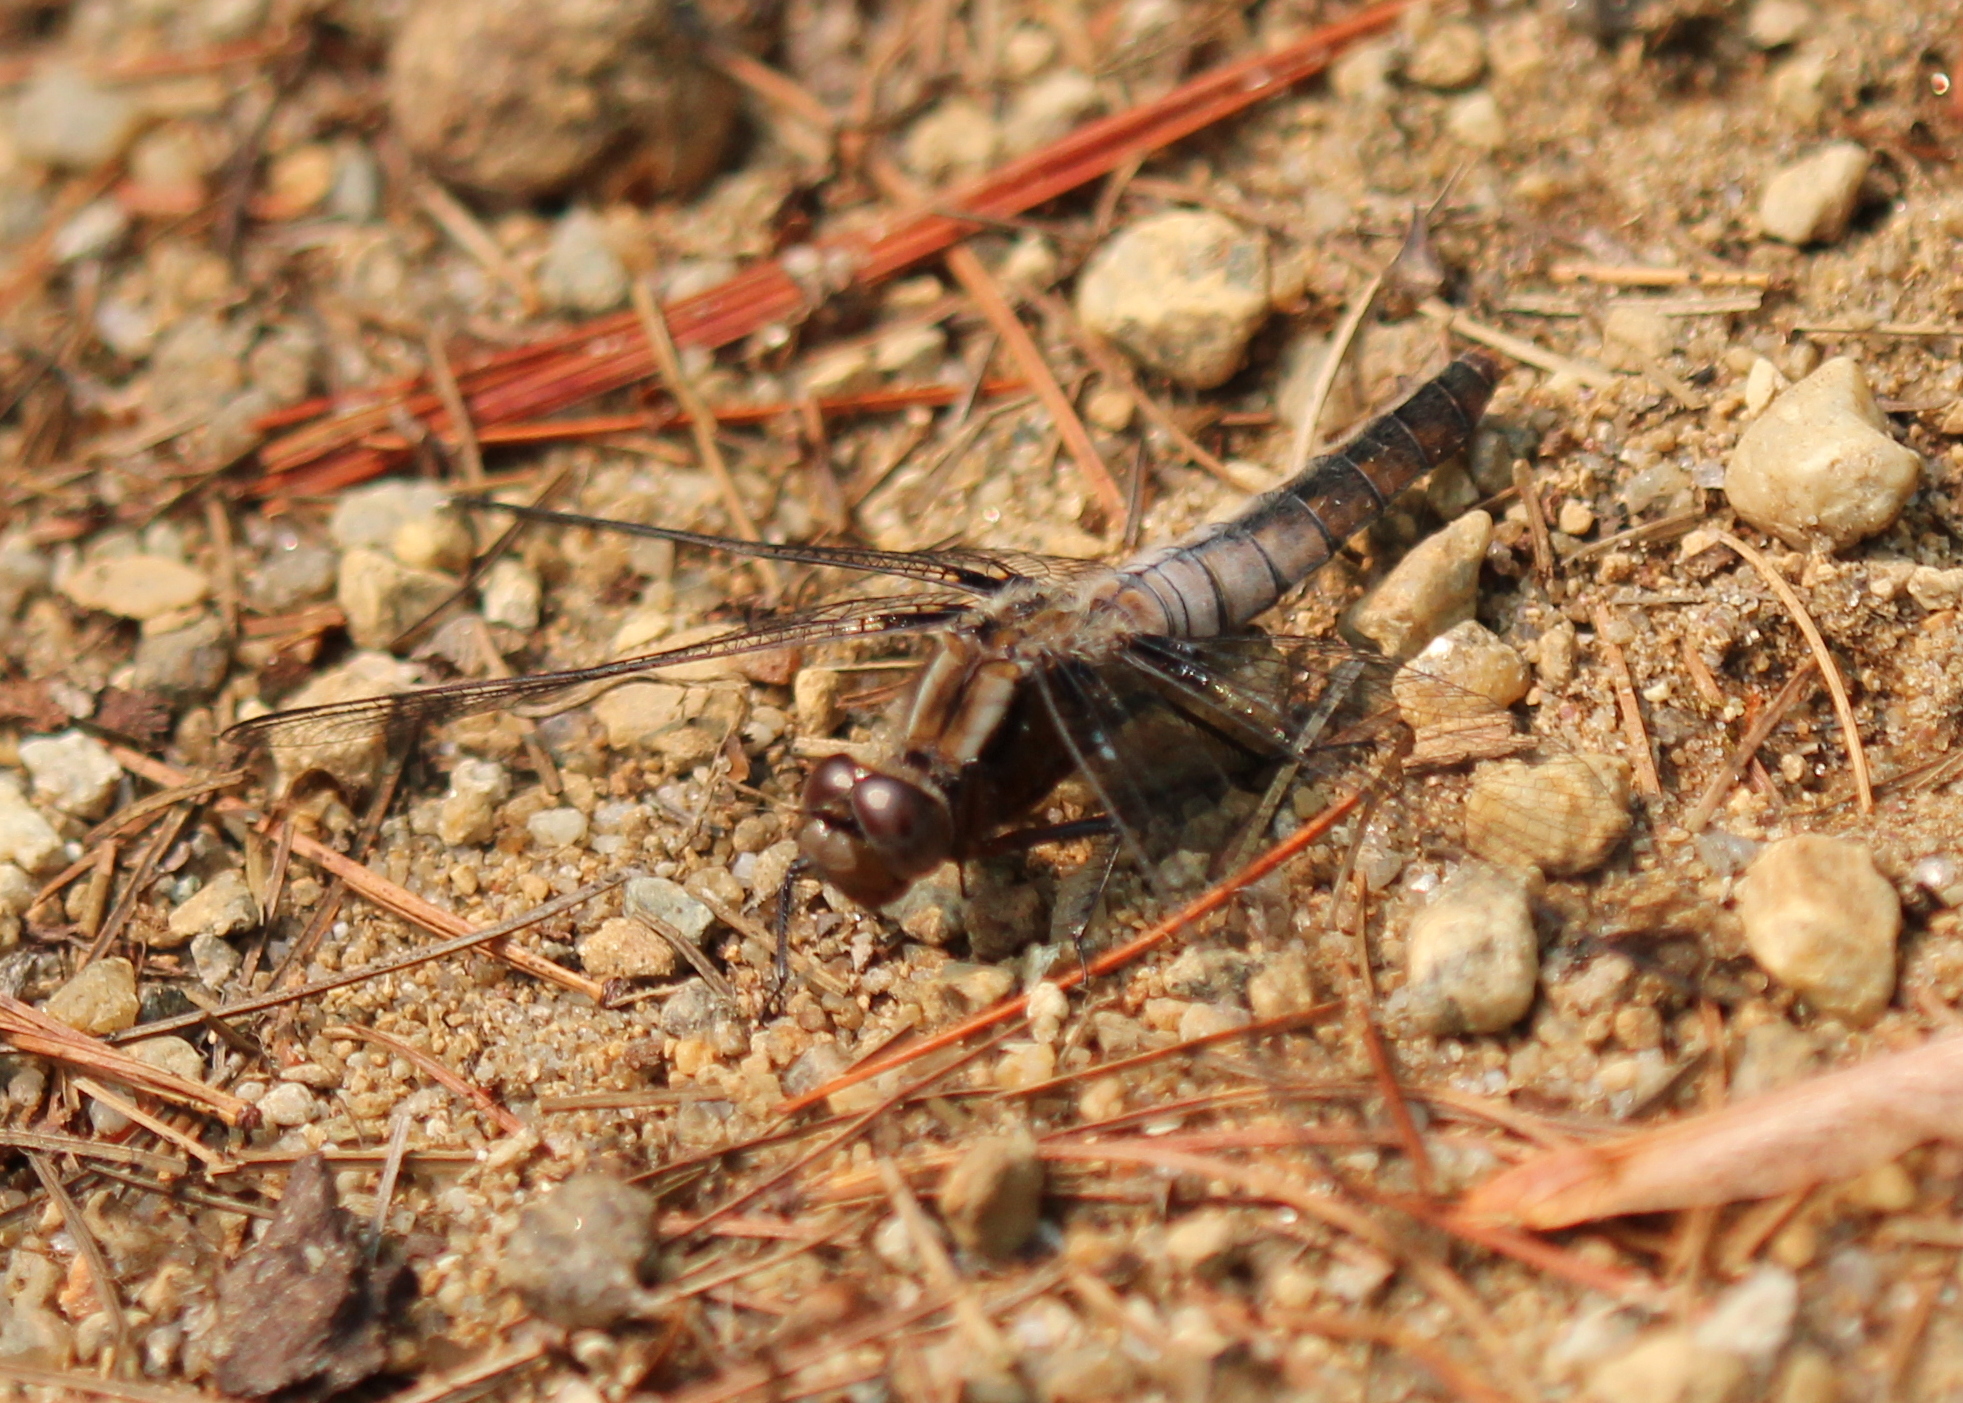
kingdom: Animalia
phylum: Arthropoda
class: Insecta
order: Odonata
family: Libellulidae
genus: Ladona
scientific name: Ladona julia
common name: Chalk-fronted corporal
